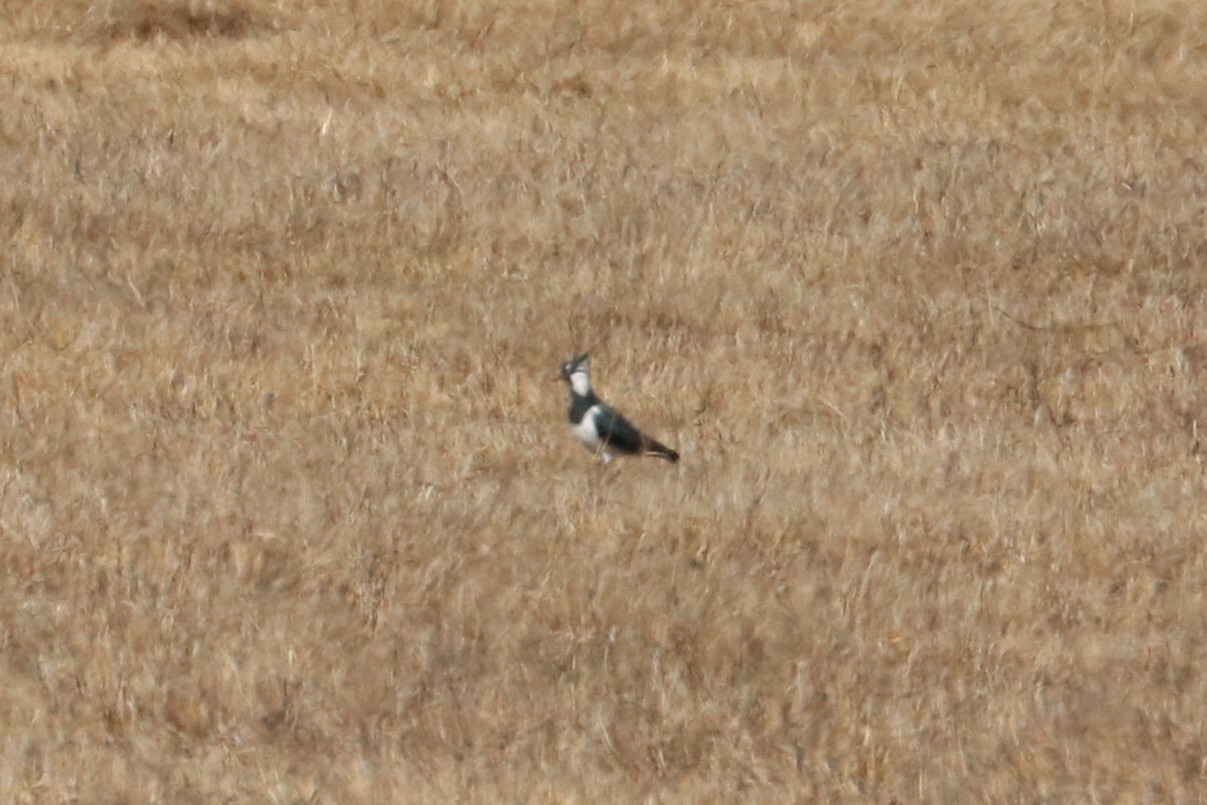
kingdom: Animalia
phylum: Chordata
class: Aves
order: Charadriiformes
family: Charadriidae
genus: Vanellus
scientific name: Vanellus vanellus
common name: Northern lapwing
